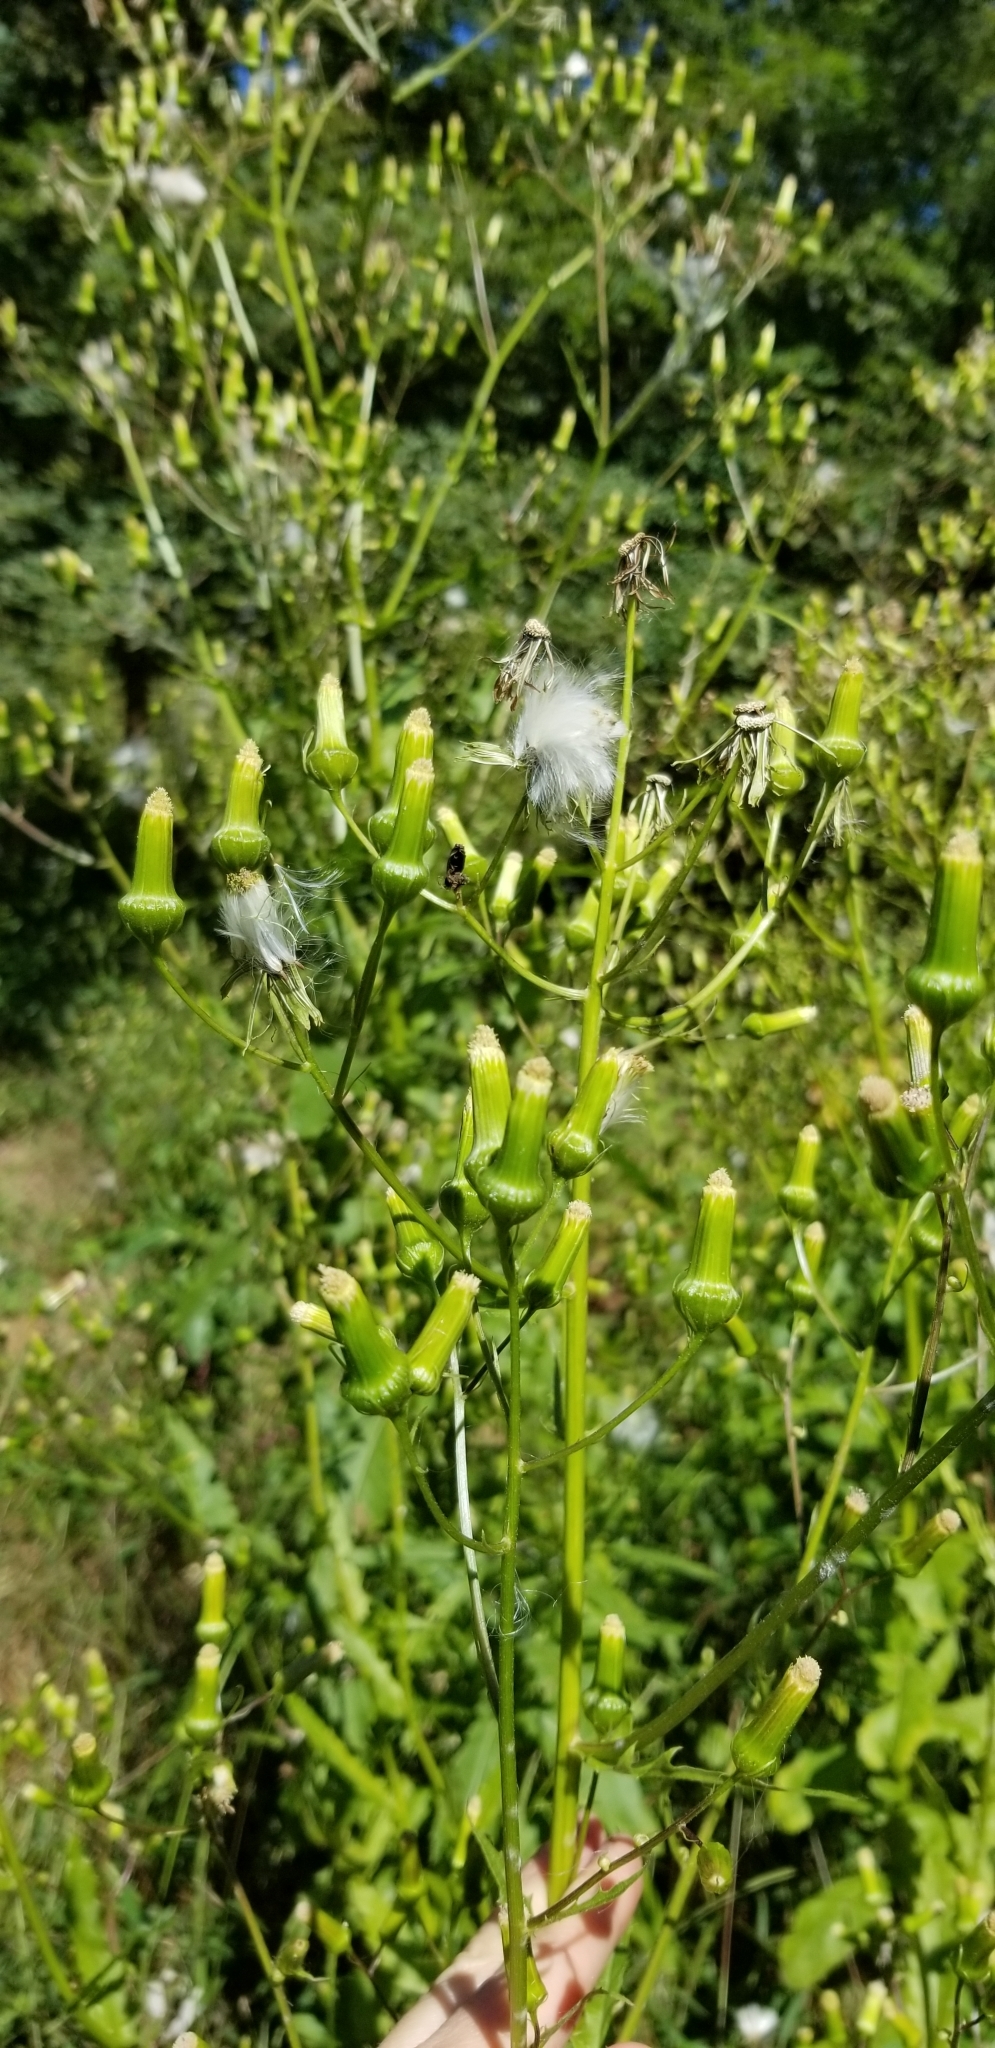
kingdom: Plantae
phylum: Tracheophyta
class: Magnoliopsida
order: Asterales
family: Asteraceae
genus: Erechtites
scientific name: Erechtites hieraciifolius
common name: American burnweed
